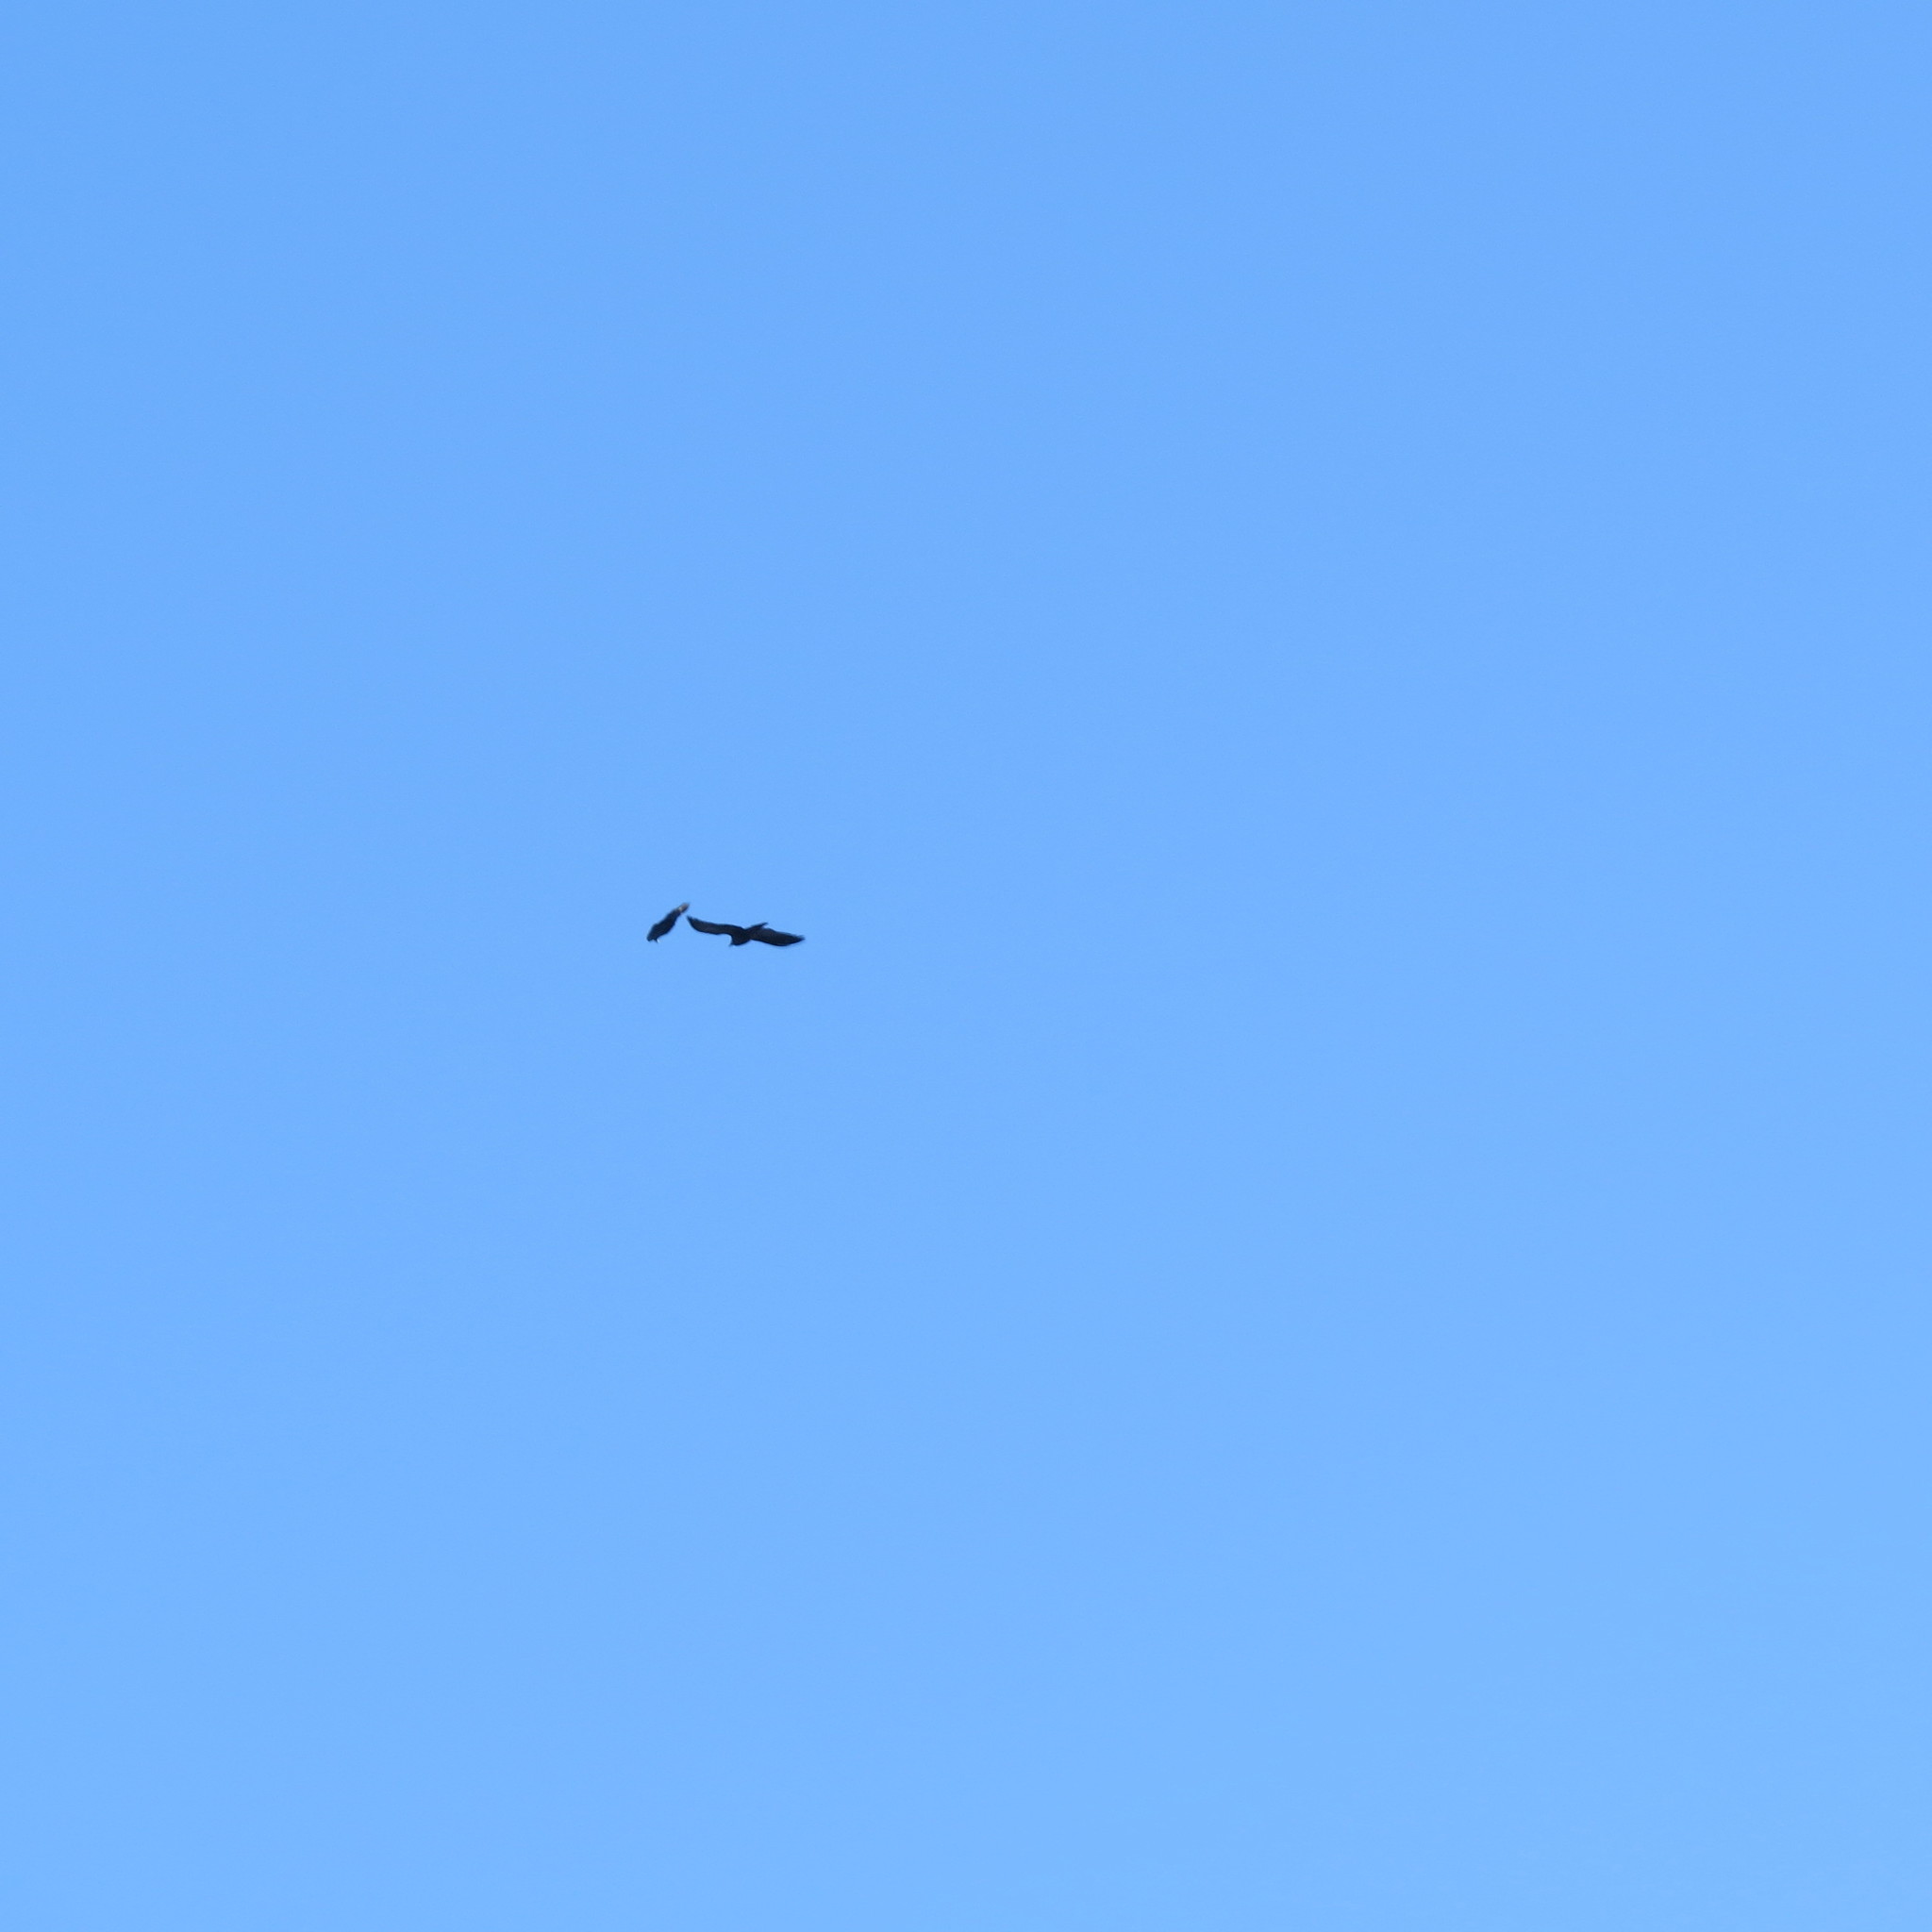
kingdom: Animalia
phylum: Chordata
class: Aves
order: Passeriformes
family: Corvidae
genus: Corvus
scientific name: Corvus corax
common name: Common raven
